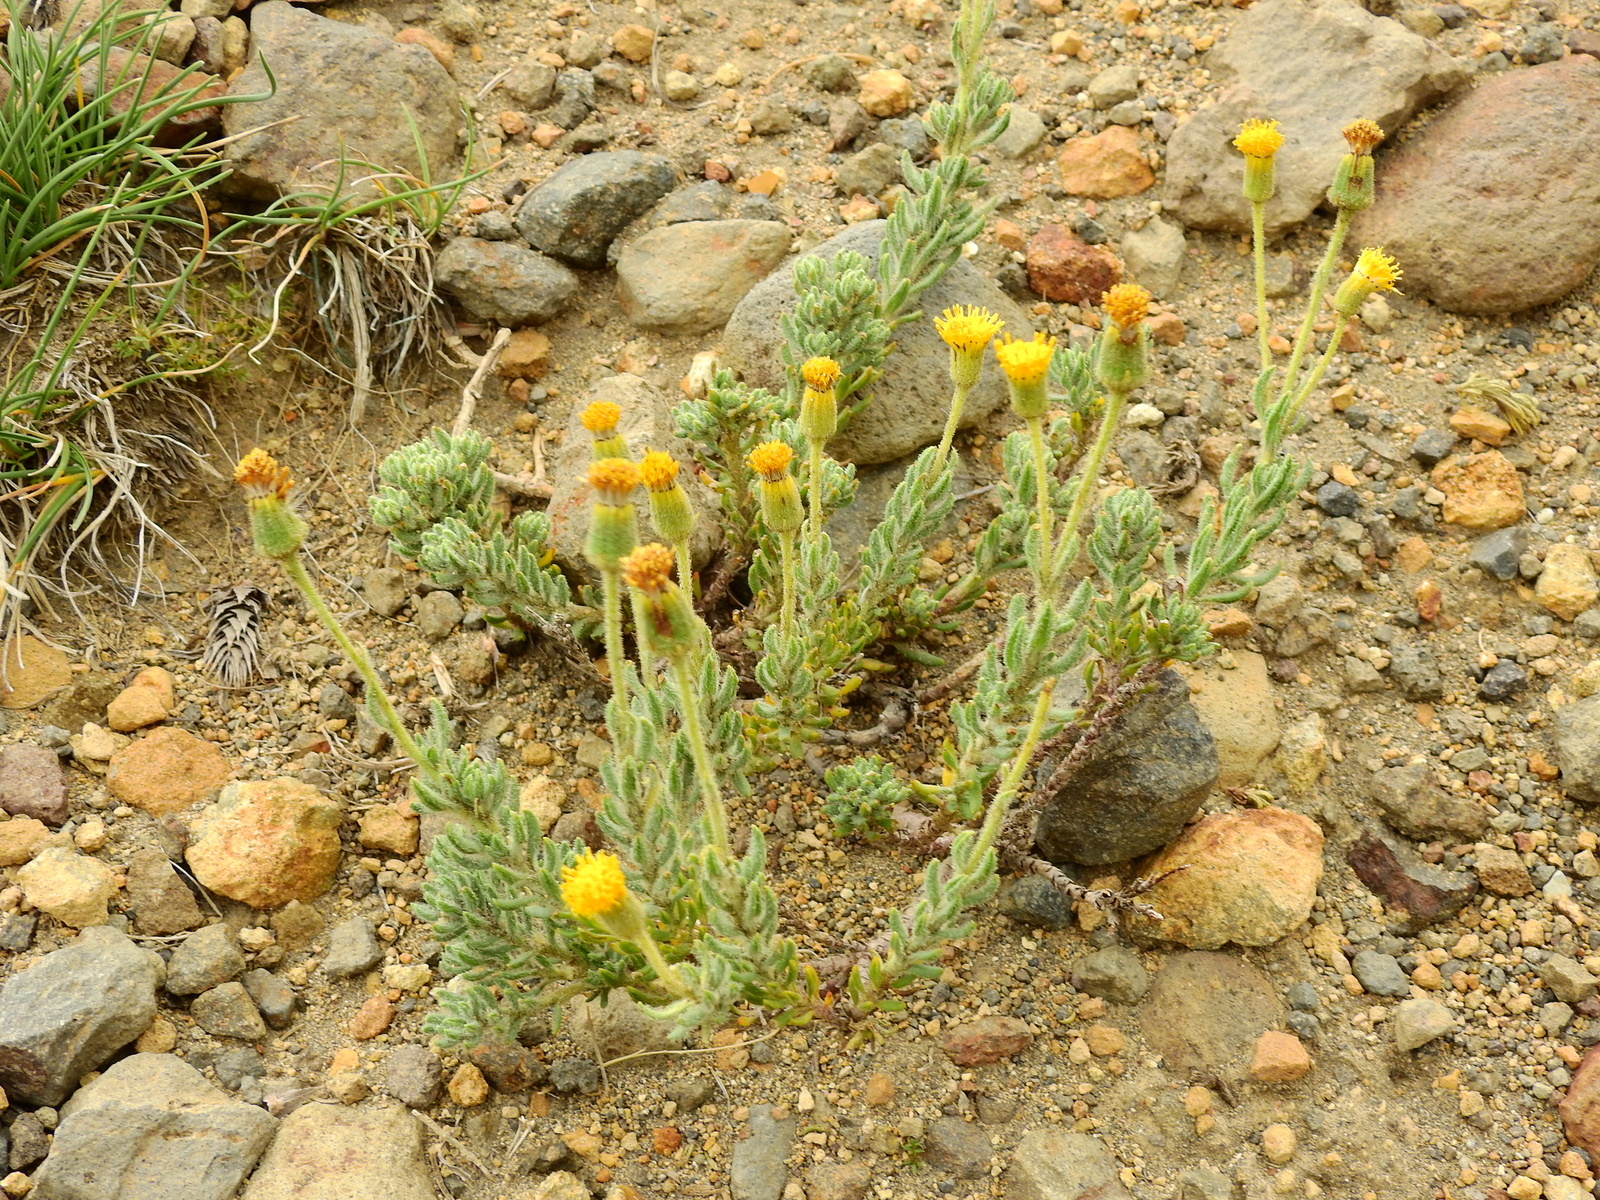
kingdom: Plantae
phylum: Tracheophyta
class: Magnoliopsida
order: Asterales
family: Asteraceae
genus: Senecio
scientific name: Senecio tristis
